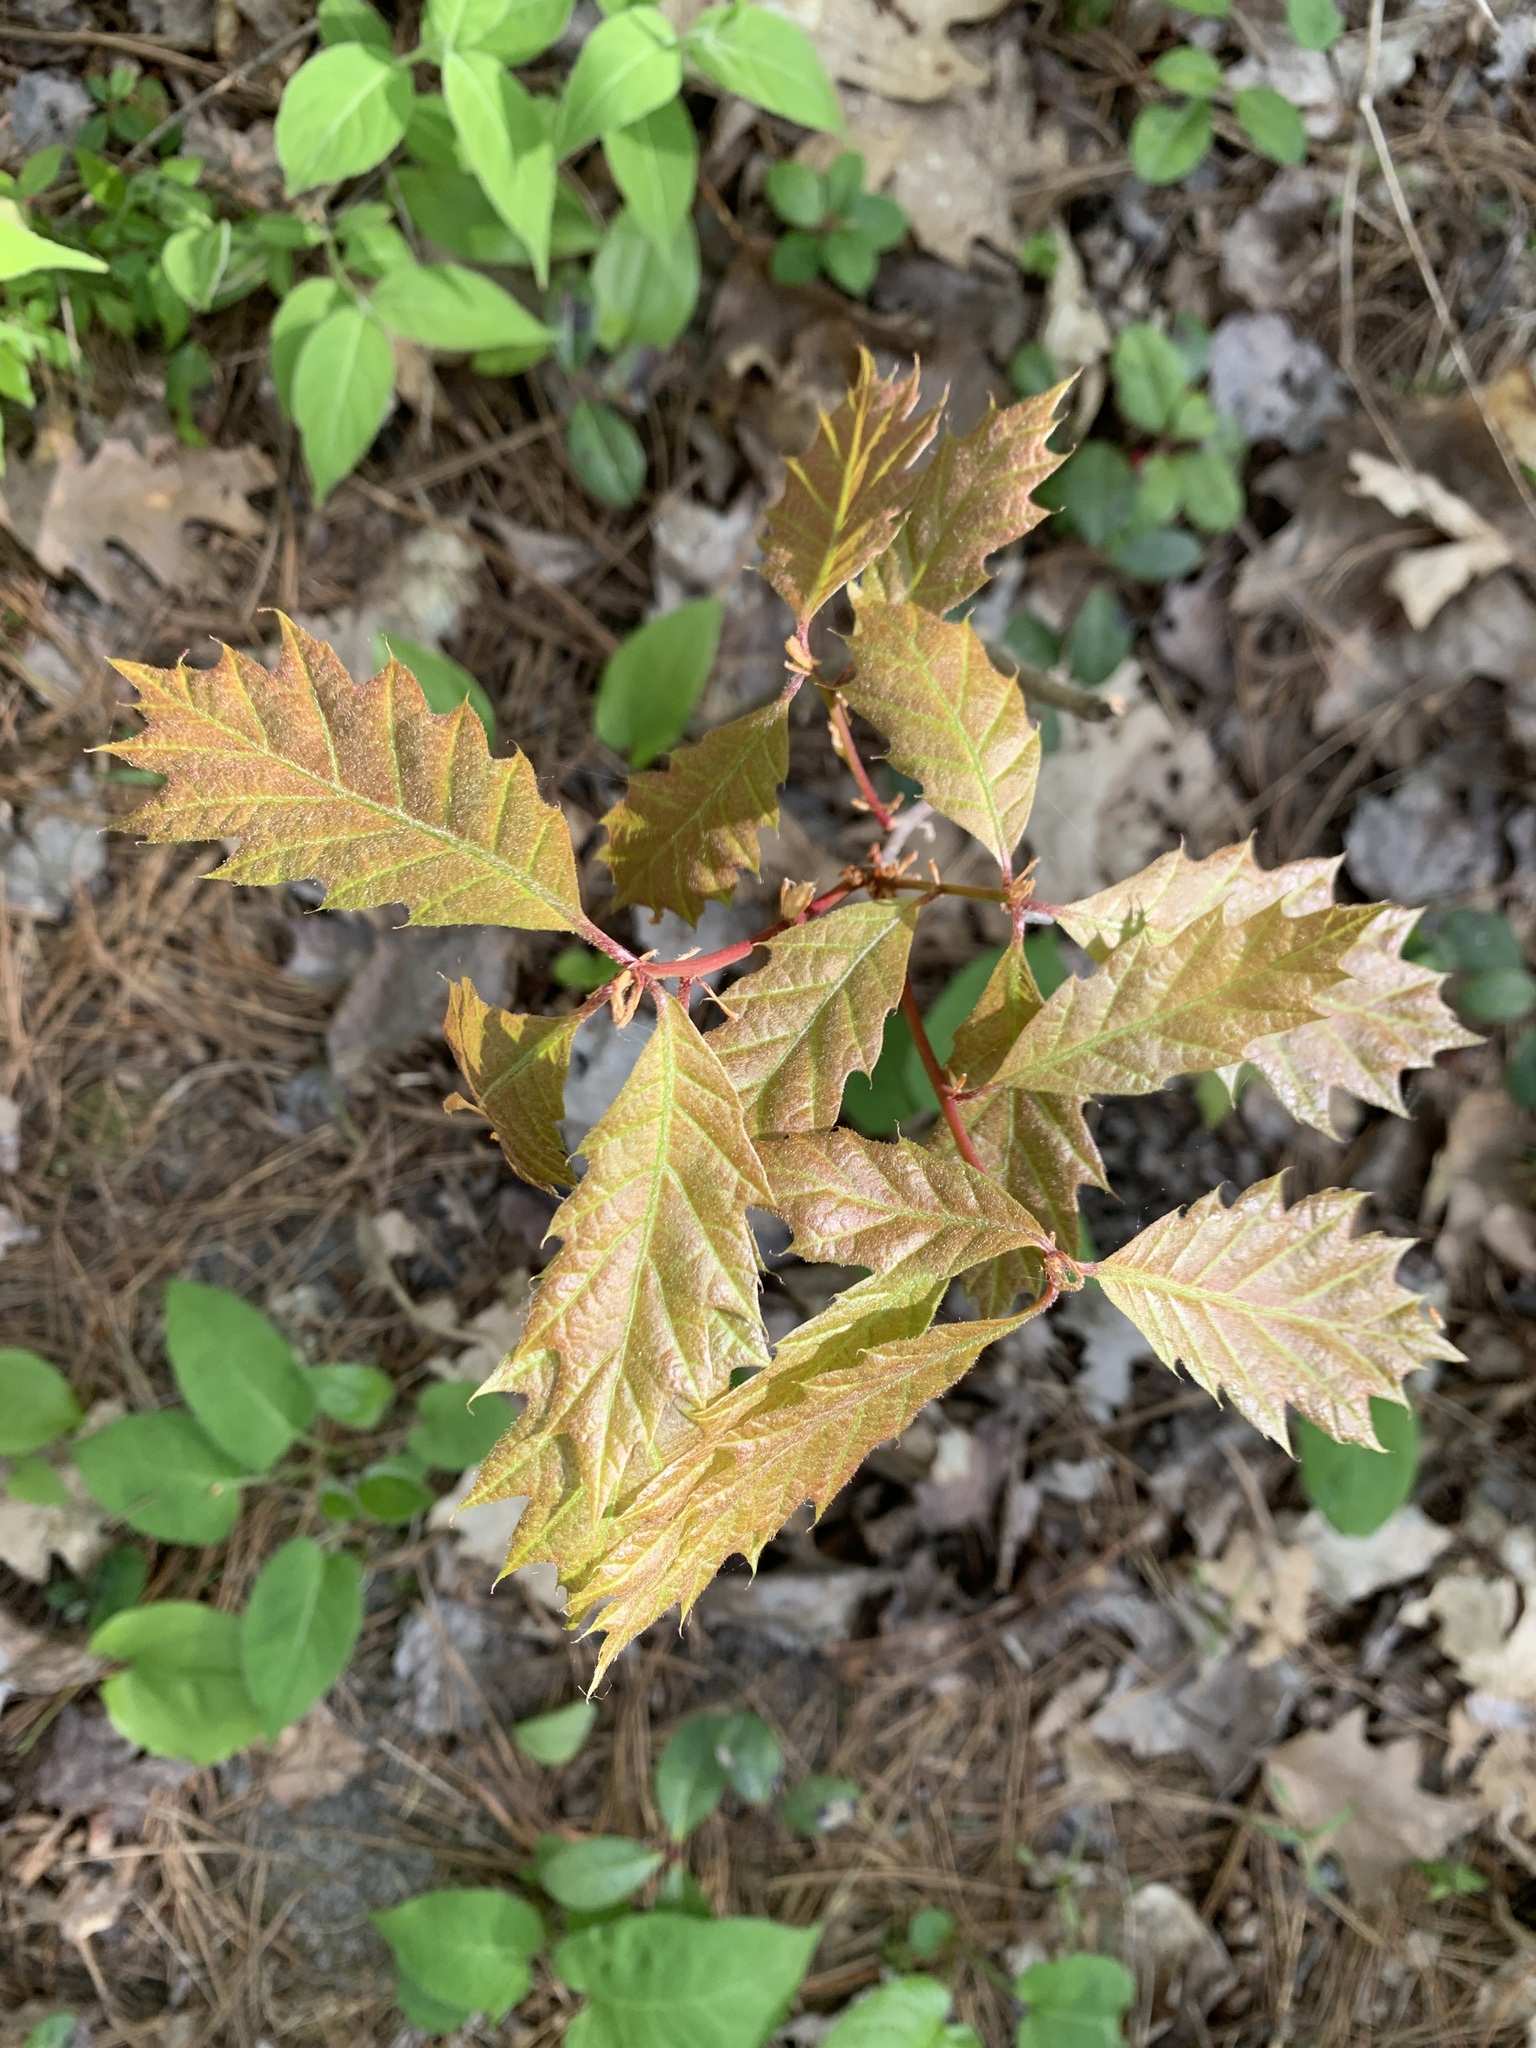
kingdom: Plantae
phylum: Tracheophyta
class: Magnoliopsida
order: Fagales
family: Fagaceae
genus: Quercus
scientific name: Quercus rubra
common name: Red oak
